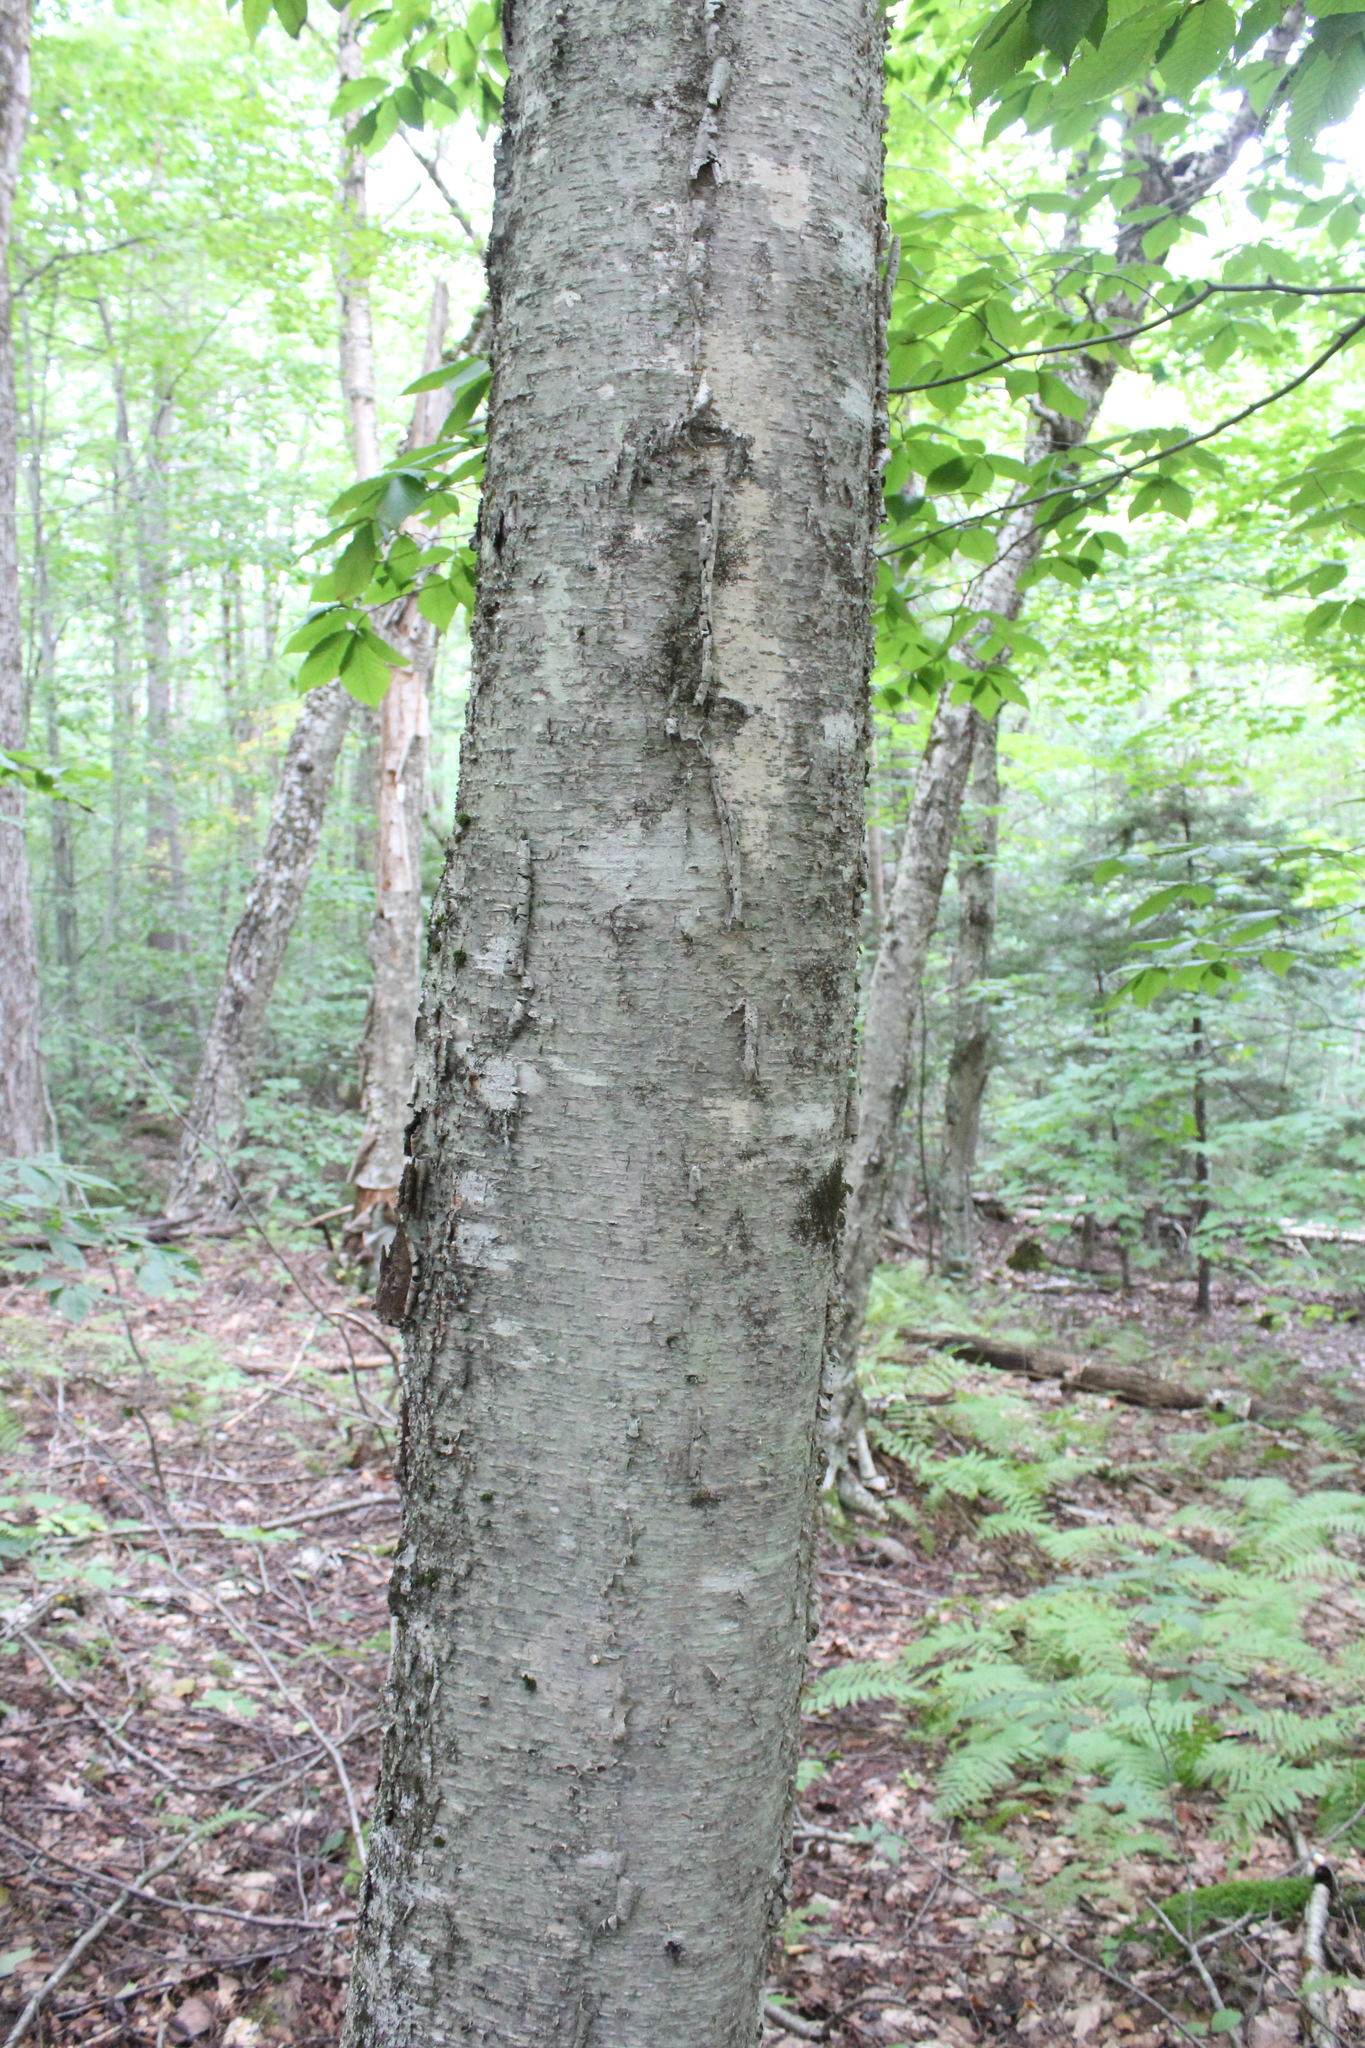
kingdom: Plantae
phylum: Tracheophyta
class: Magnoliopsida
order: Fagales
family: Betulaceae
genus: Betula
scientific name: Betula alleghaniensis
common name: Yellow birch
